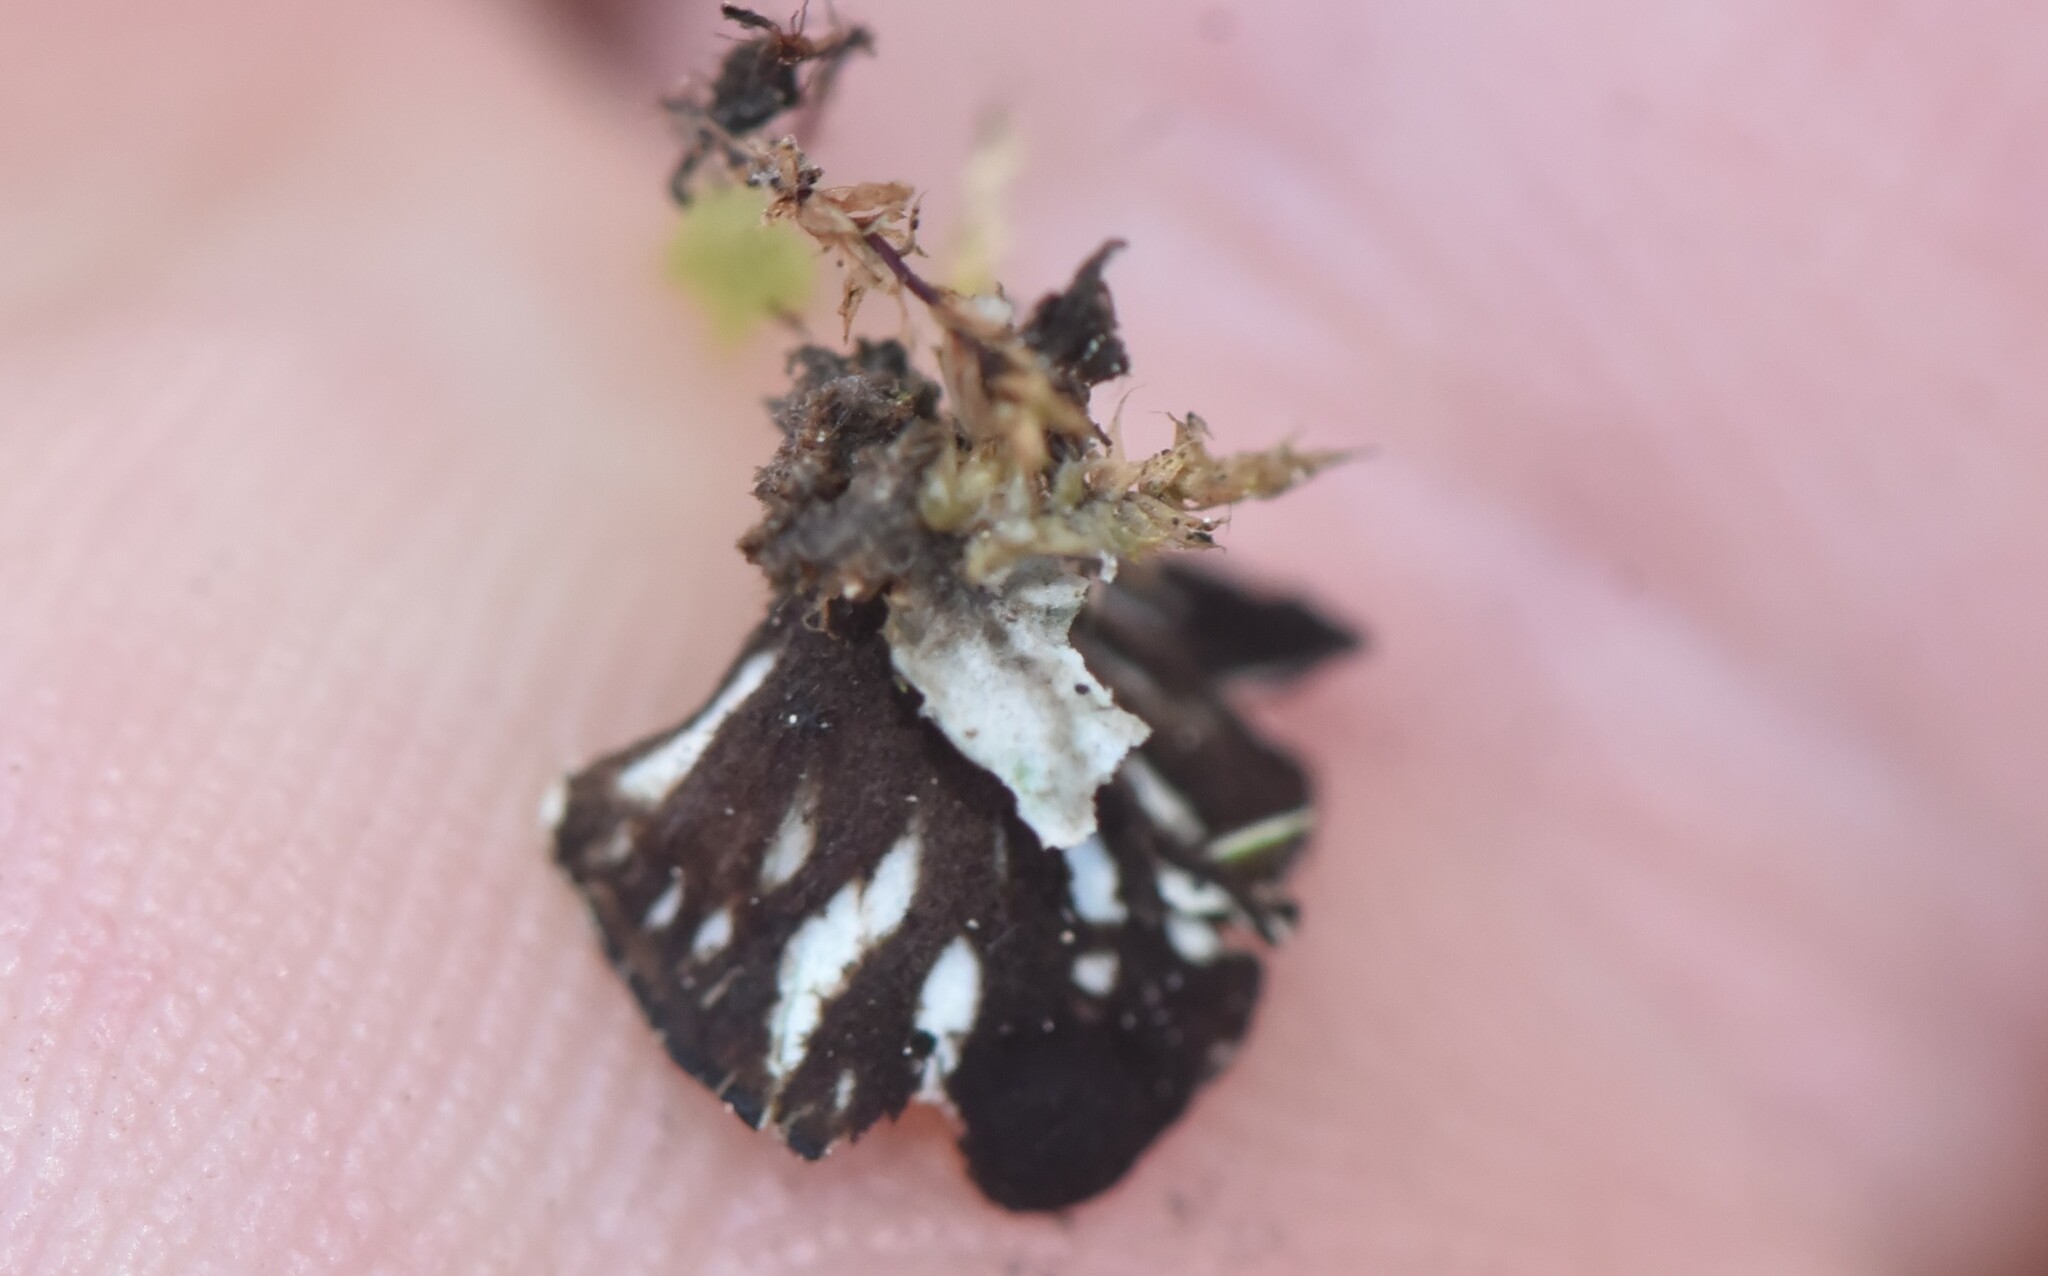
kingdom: Fungi
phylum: Ascomycota
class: Lecanoromycetes
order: Peltigerales
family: Peltigeraceae
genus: Peltigera
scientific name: Peltigera venosa
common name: Pixie gowns lichen
